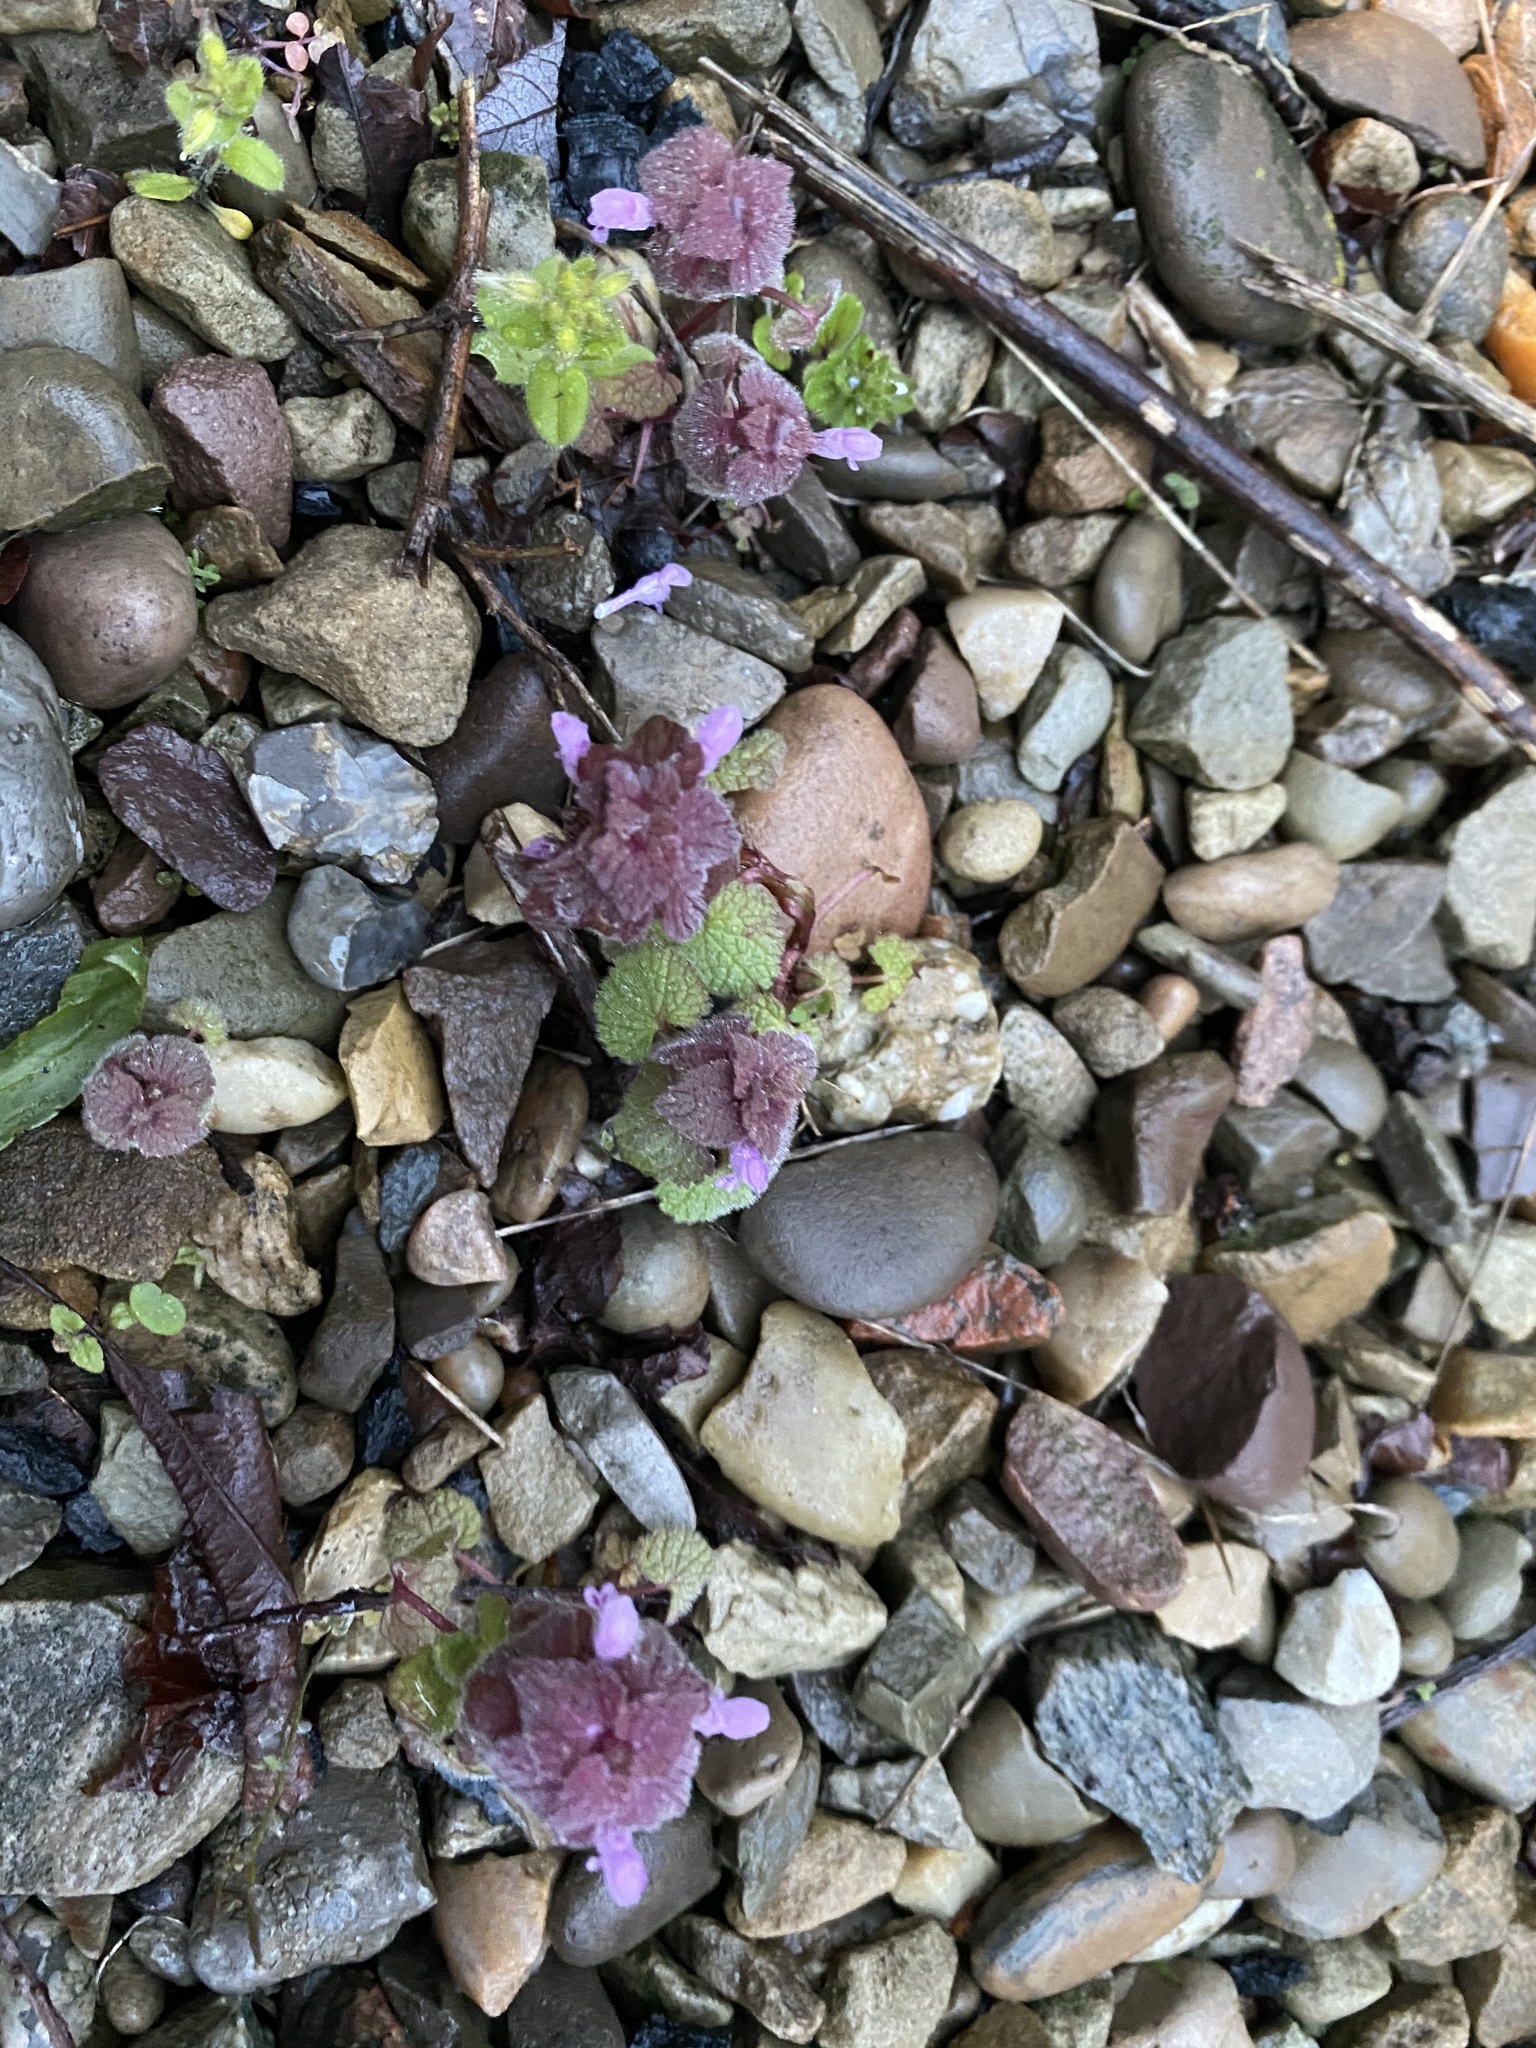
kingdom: Plantae
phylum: Tracheophyta
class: Magnoliopsida
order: Lamiales
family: Lamiaceae
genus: Lamium
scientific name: Lamium purpureum
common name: Red dead-nettle
